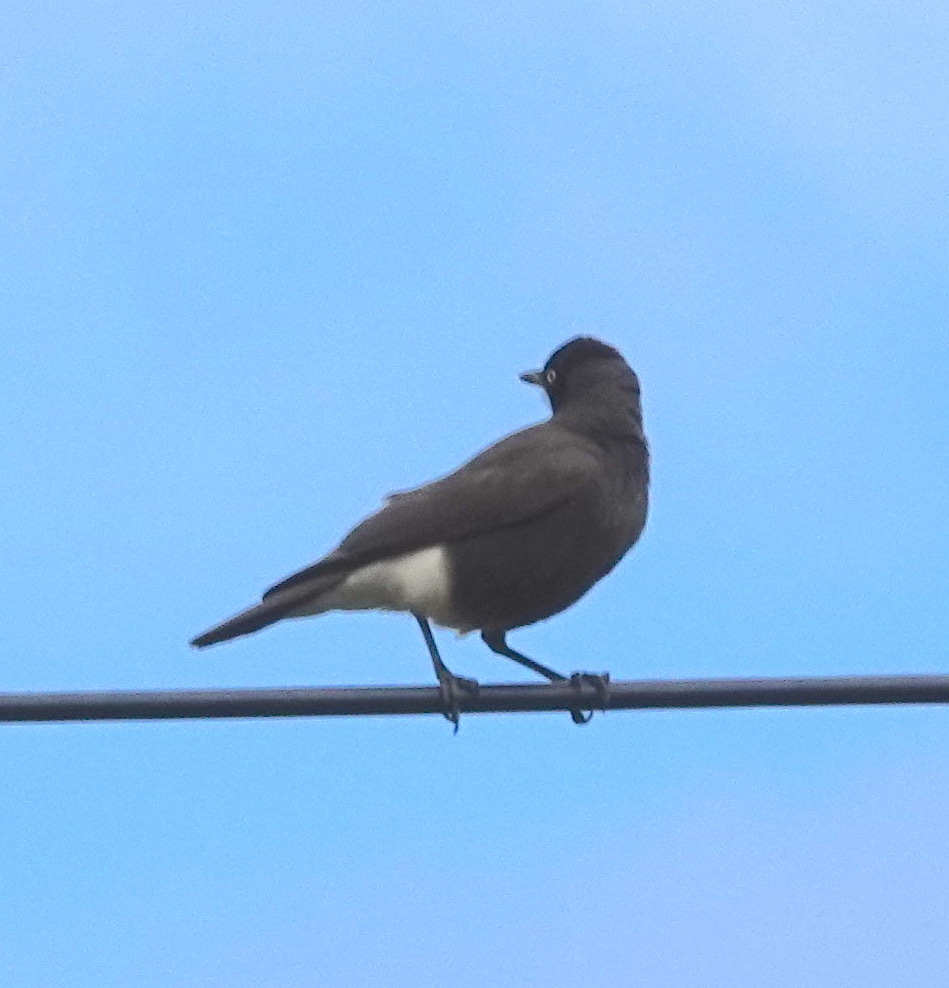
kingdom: Animalia
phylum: Chordata
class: Aves
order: Passeriformes
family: Sturnidae
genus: Lamprotornis
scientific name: Lamprotornis bicolor
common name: Pied starling
